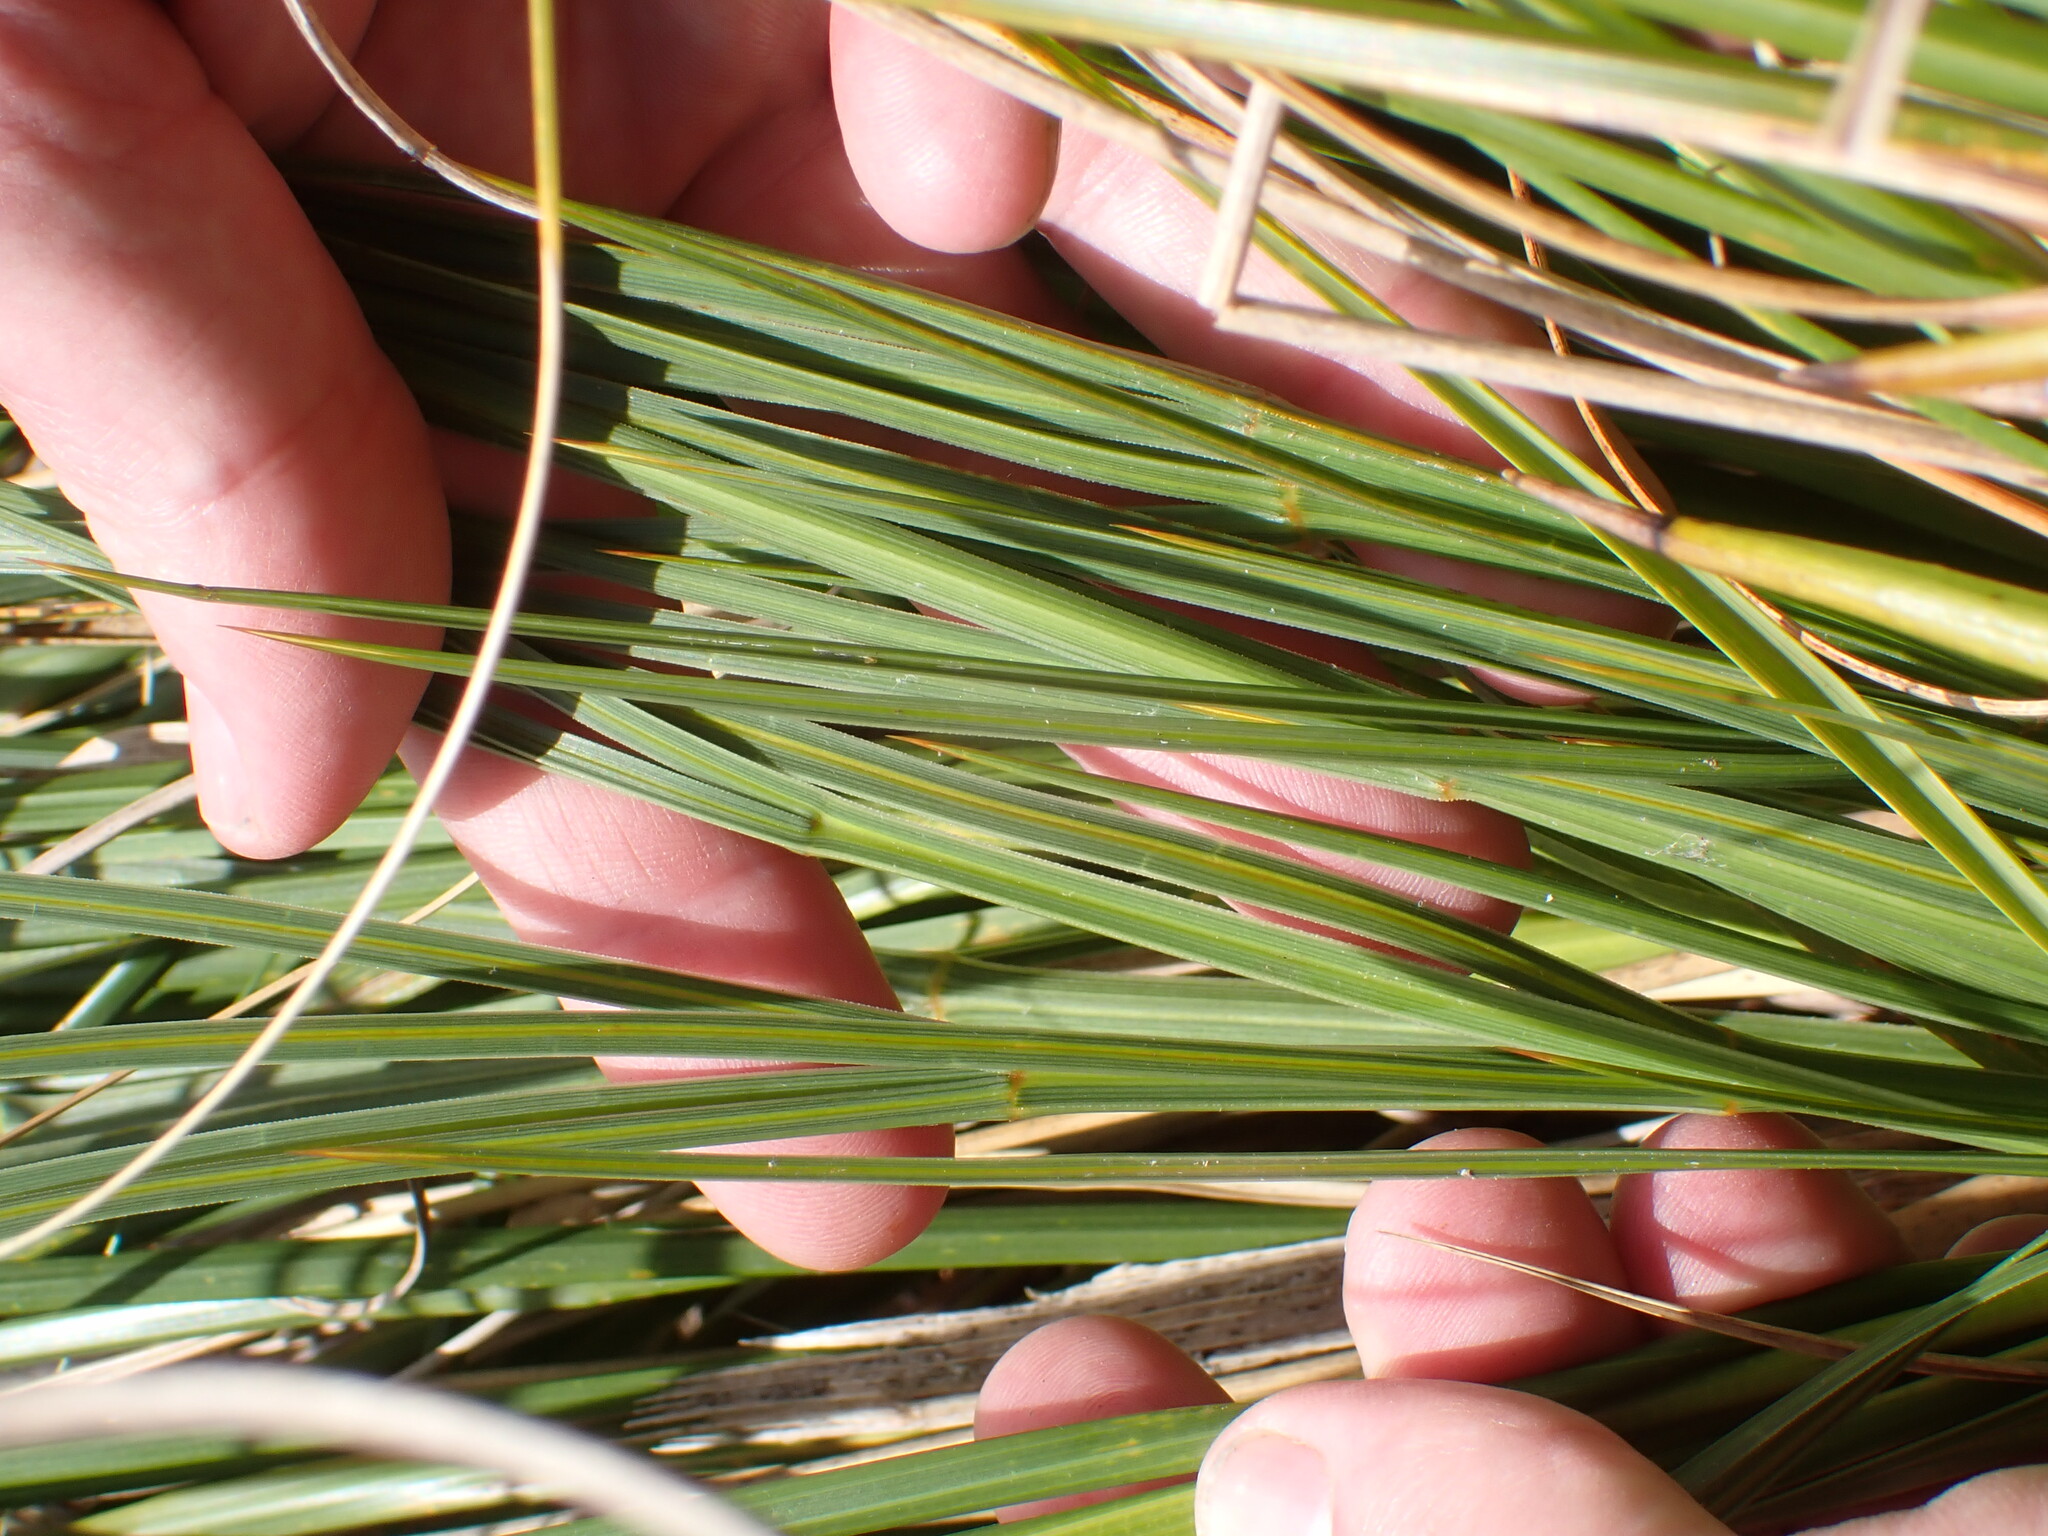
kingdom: Plantae
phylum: Tracheophyta
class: Magnoliopsida
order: Apiales
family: Apiaceae
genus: Aciphylla
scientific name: Aciphylla takahea
